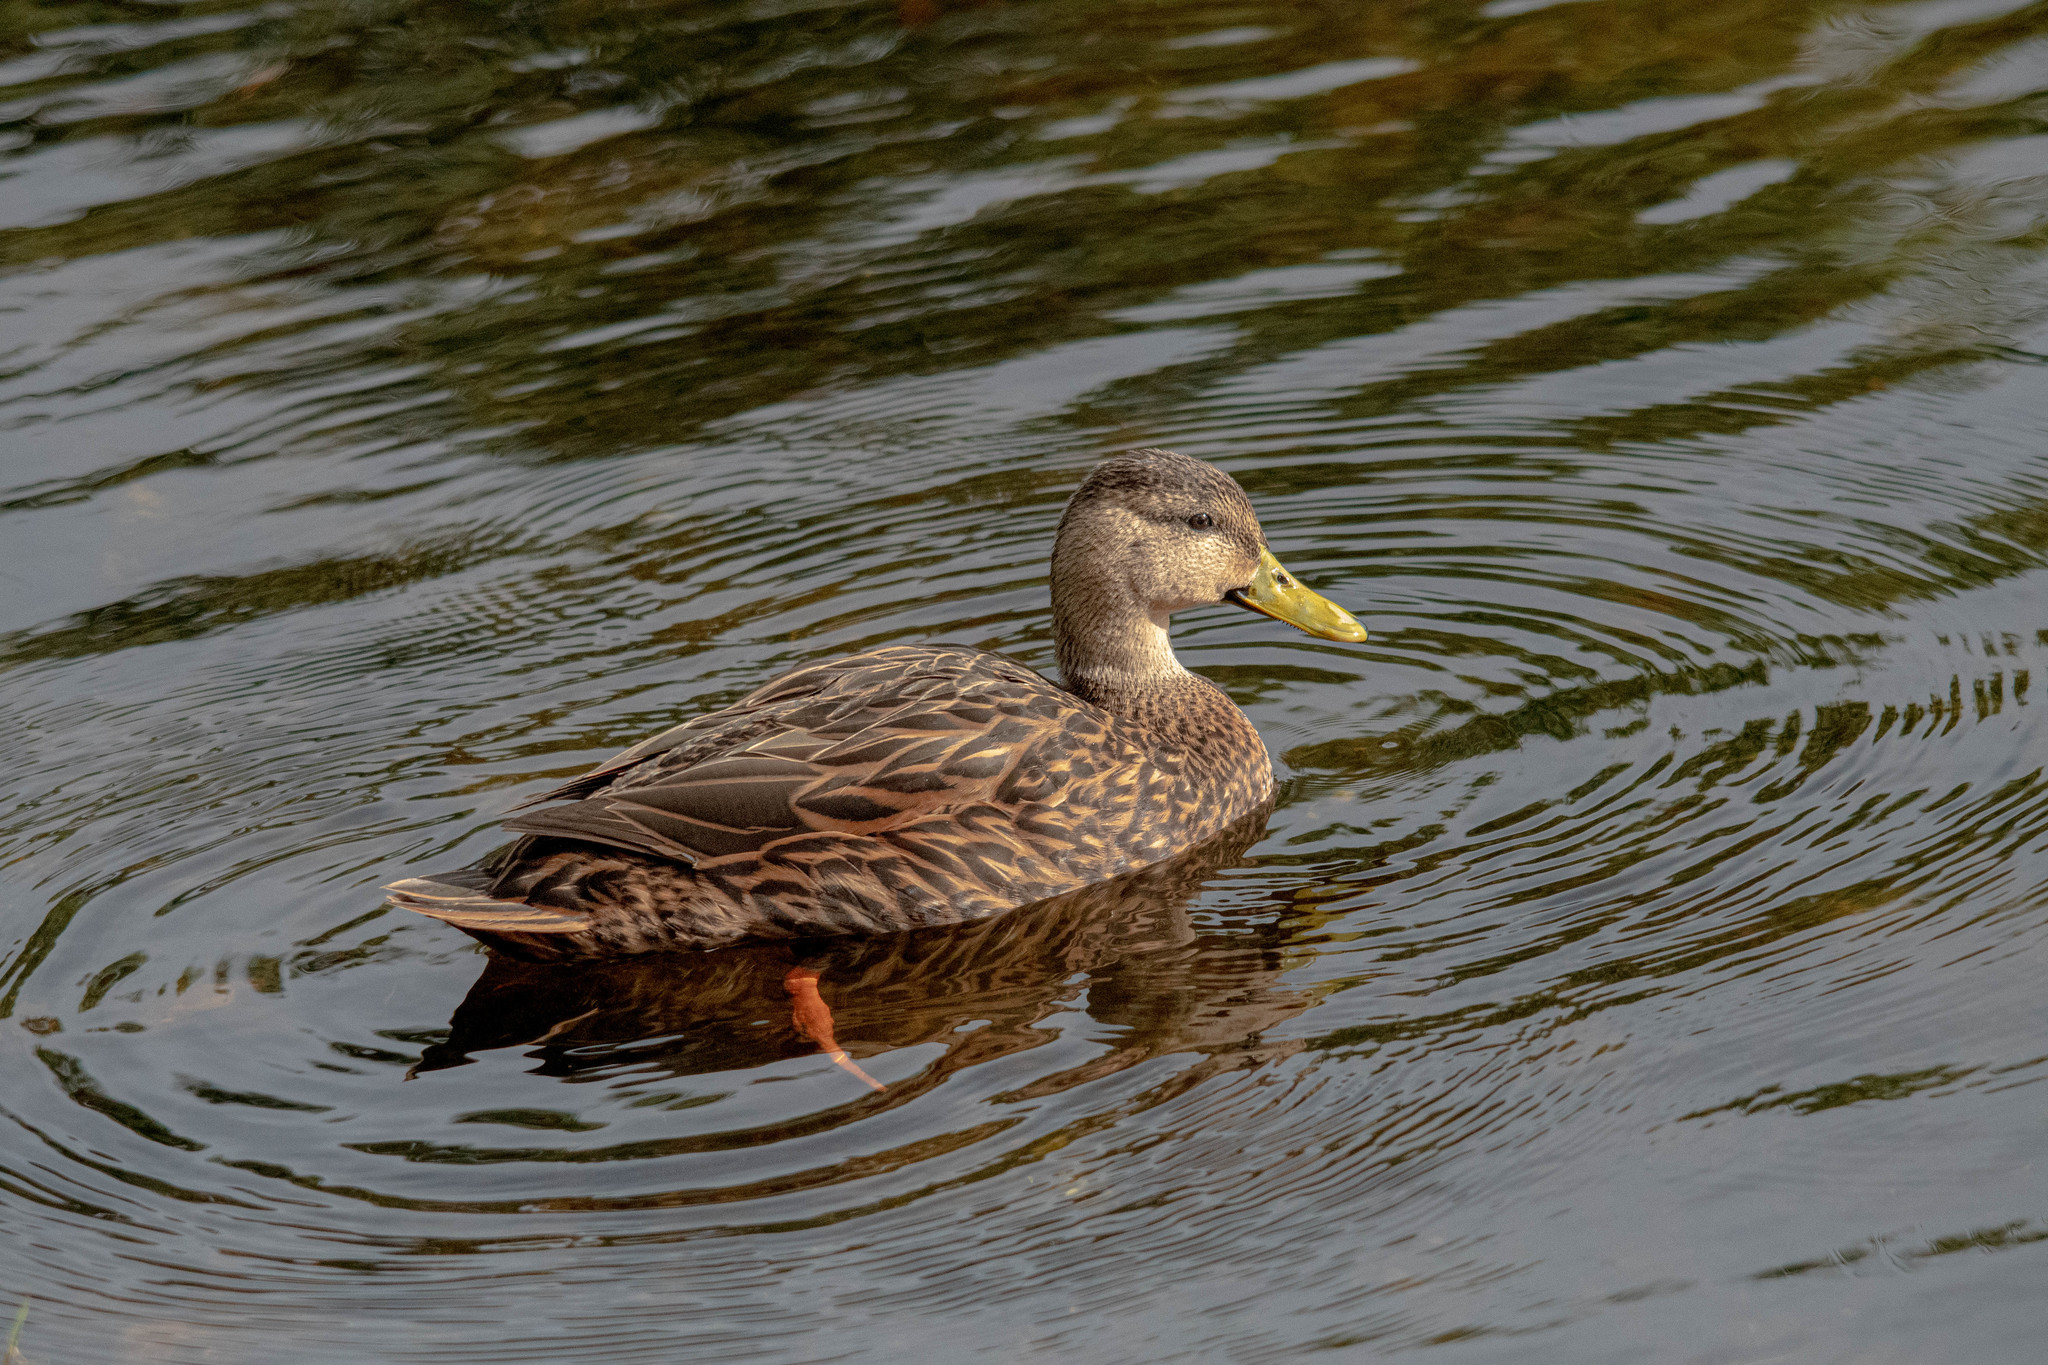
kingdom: Animalia
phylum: Chordata
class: Aves
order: Anseriformes
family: Anatidae
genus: Anas
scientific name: Anas
